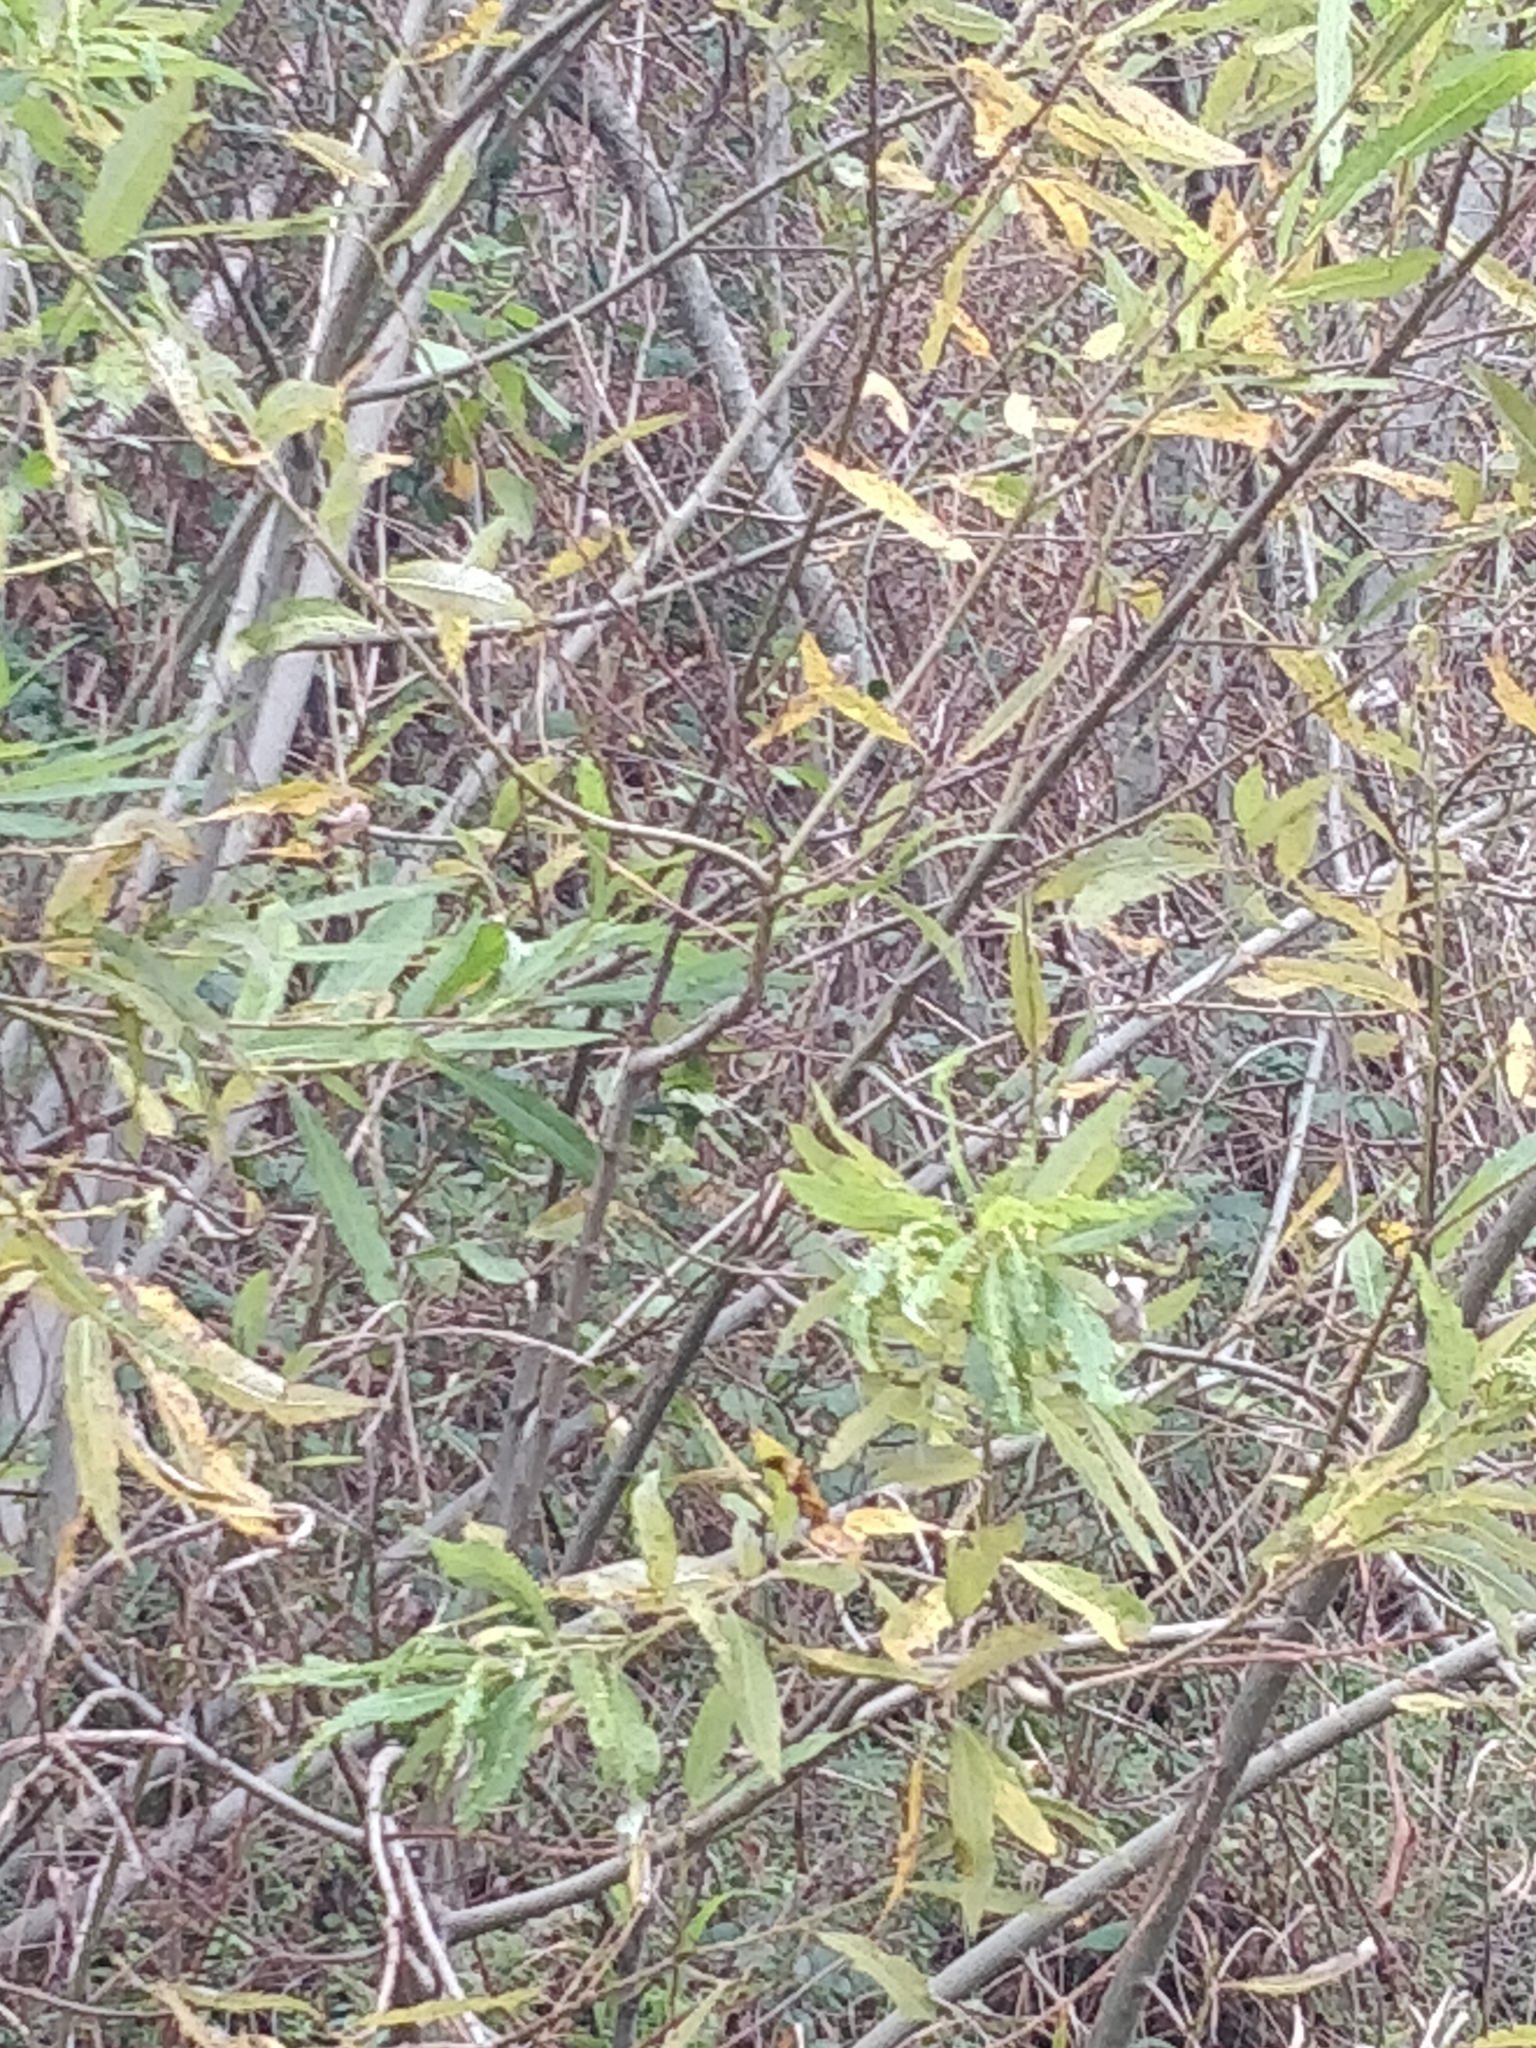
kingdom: Plantae
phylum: Tracheophyta
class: Magnoliopsida
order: Malpighiales
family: Salicaceae
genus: Salix
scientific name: Salix canariensis
